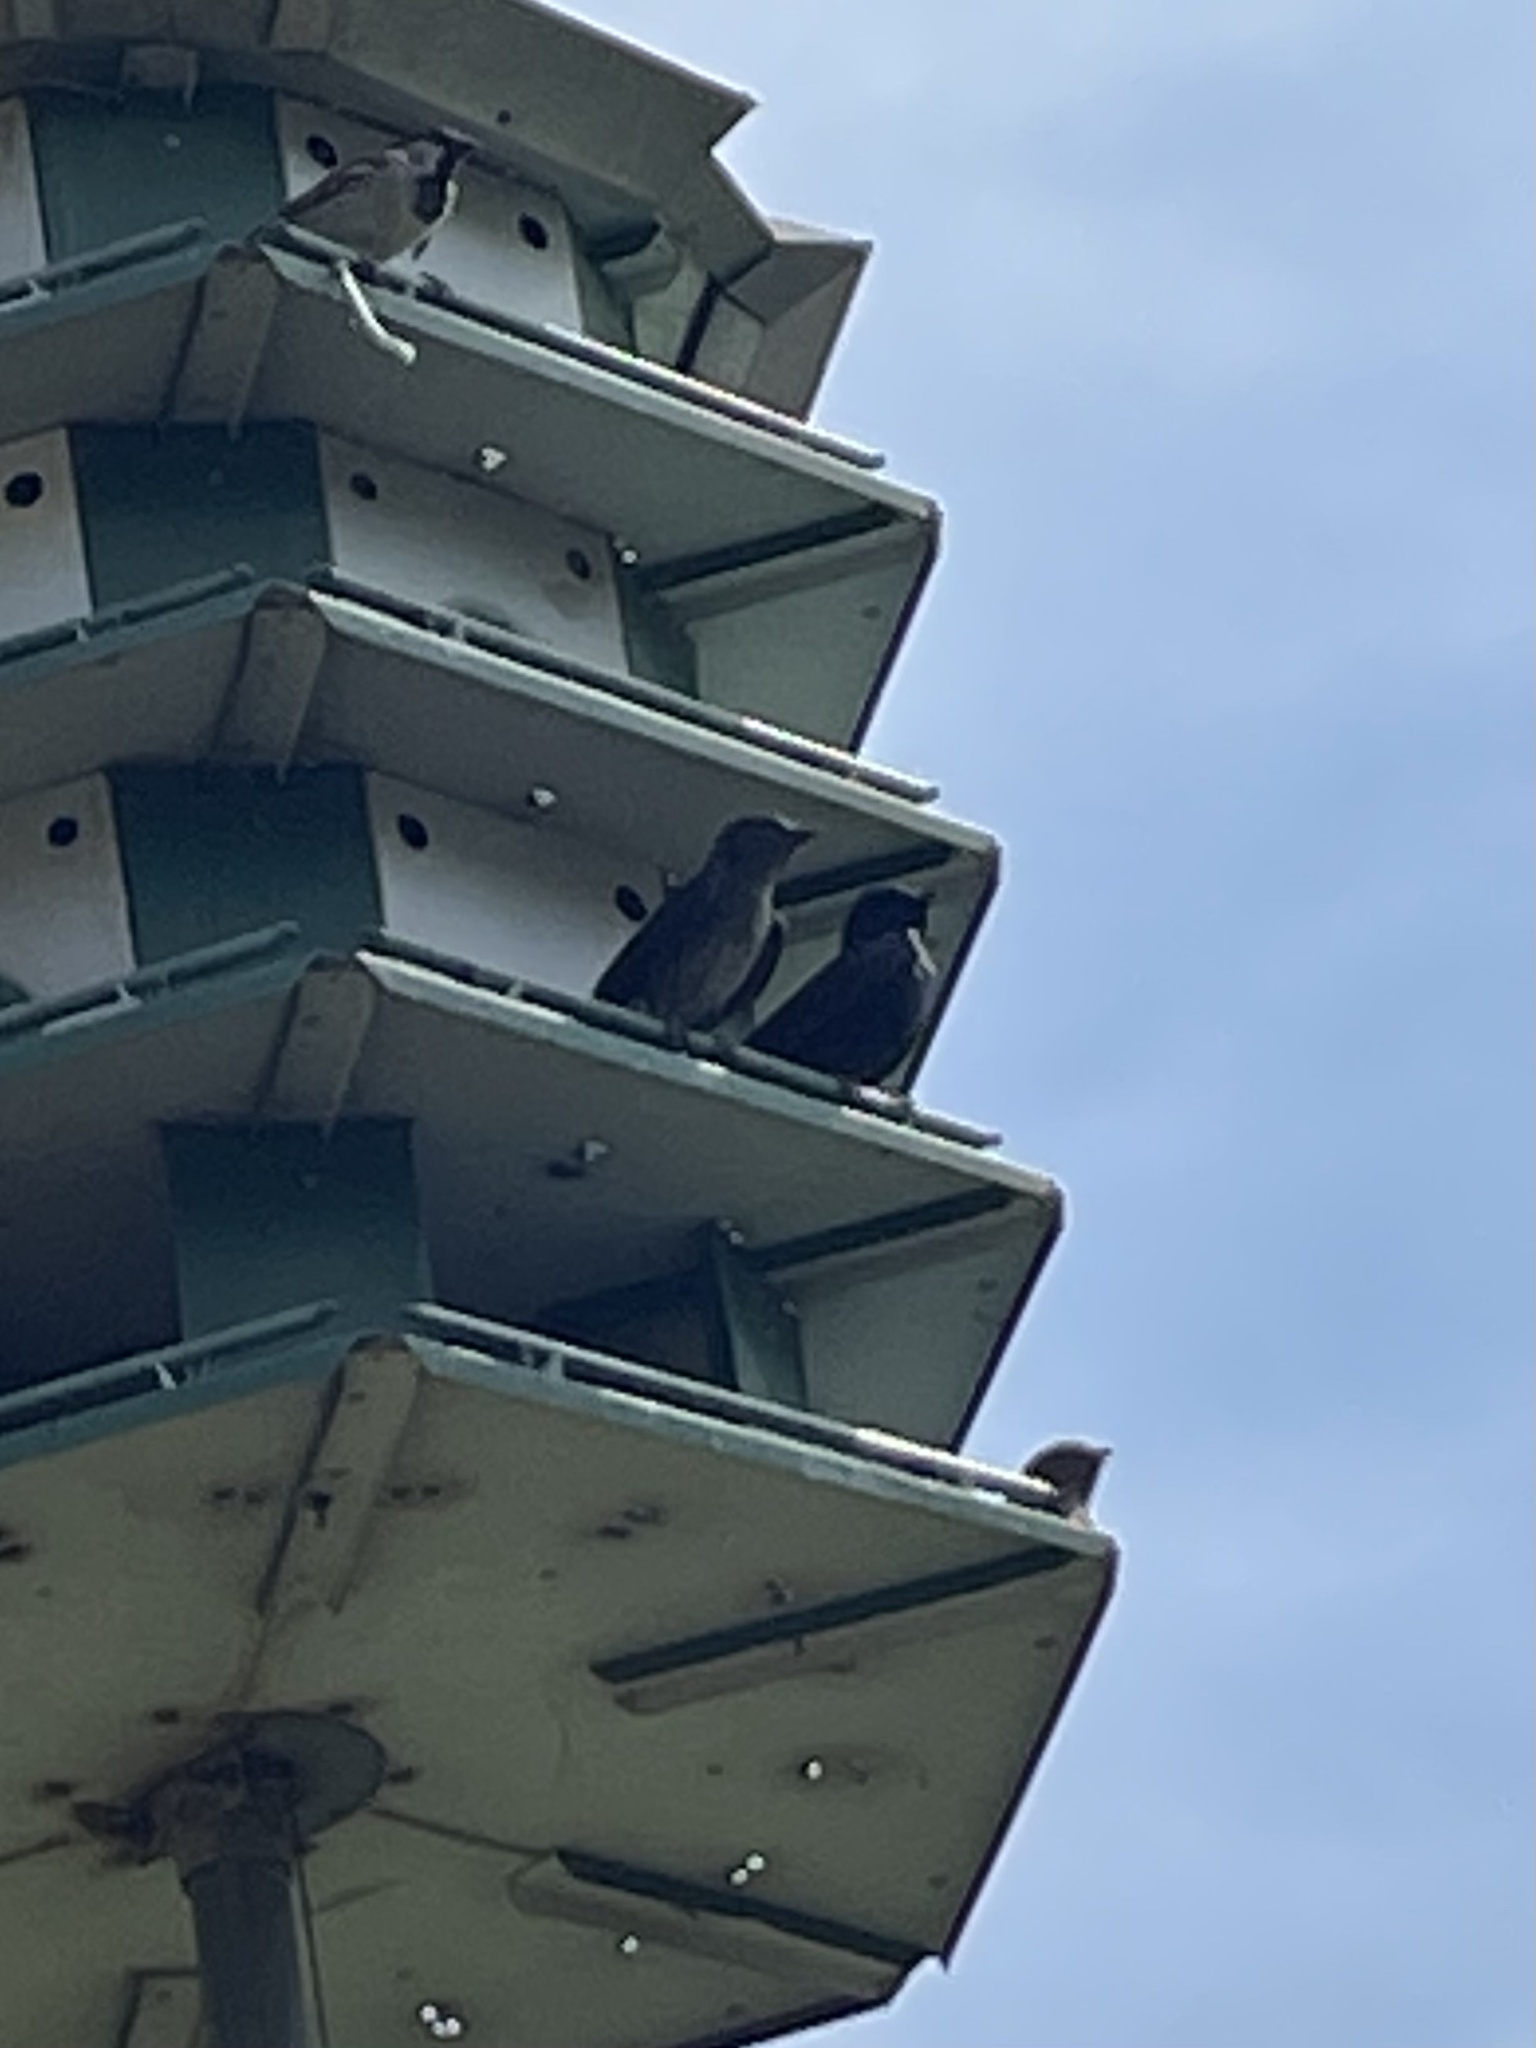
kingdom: Animalia
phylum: Chordata
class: Aves
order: Passeriformes
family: Hirundinidae
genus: Progne
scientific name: Progne subis
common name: Purple martin
